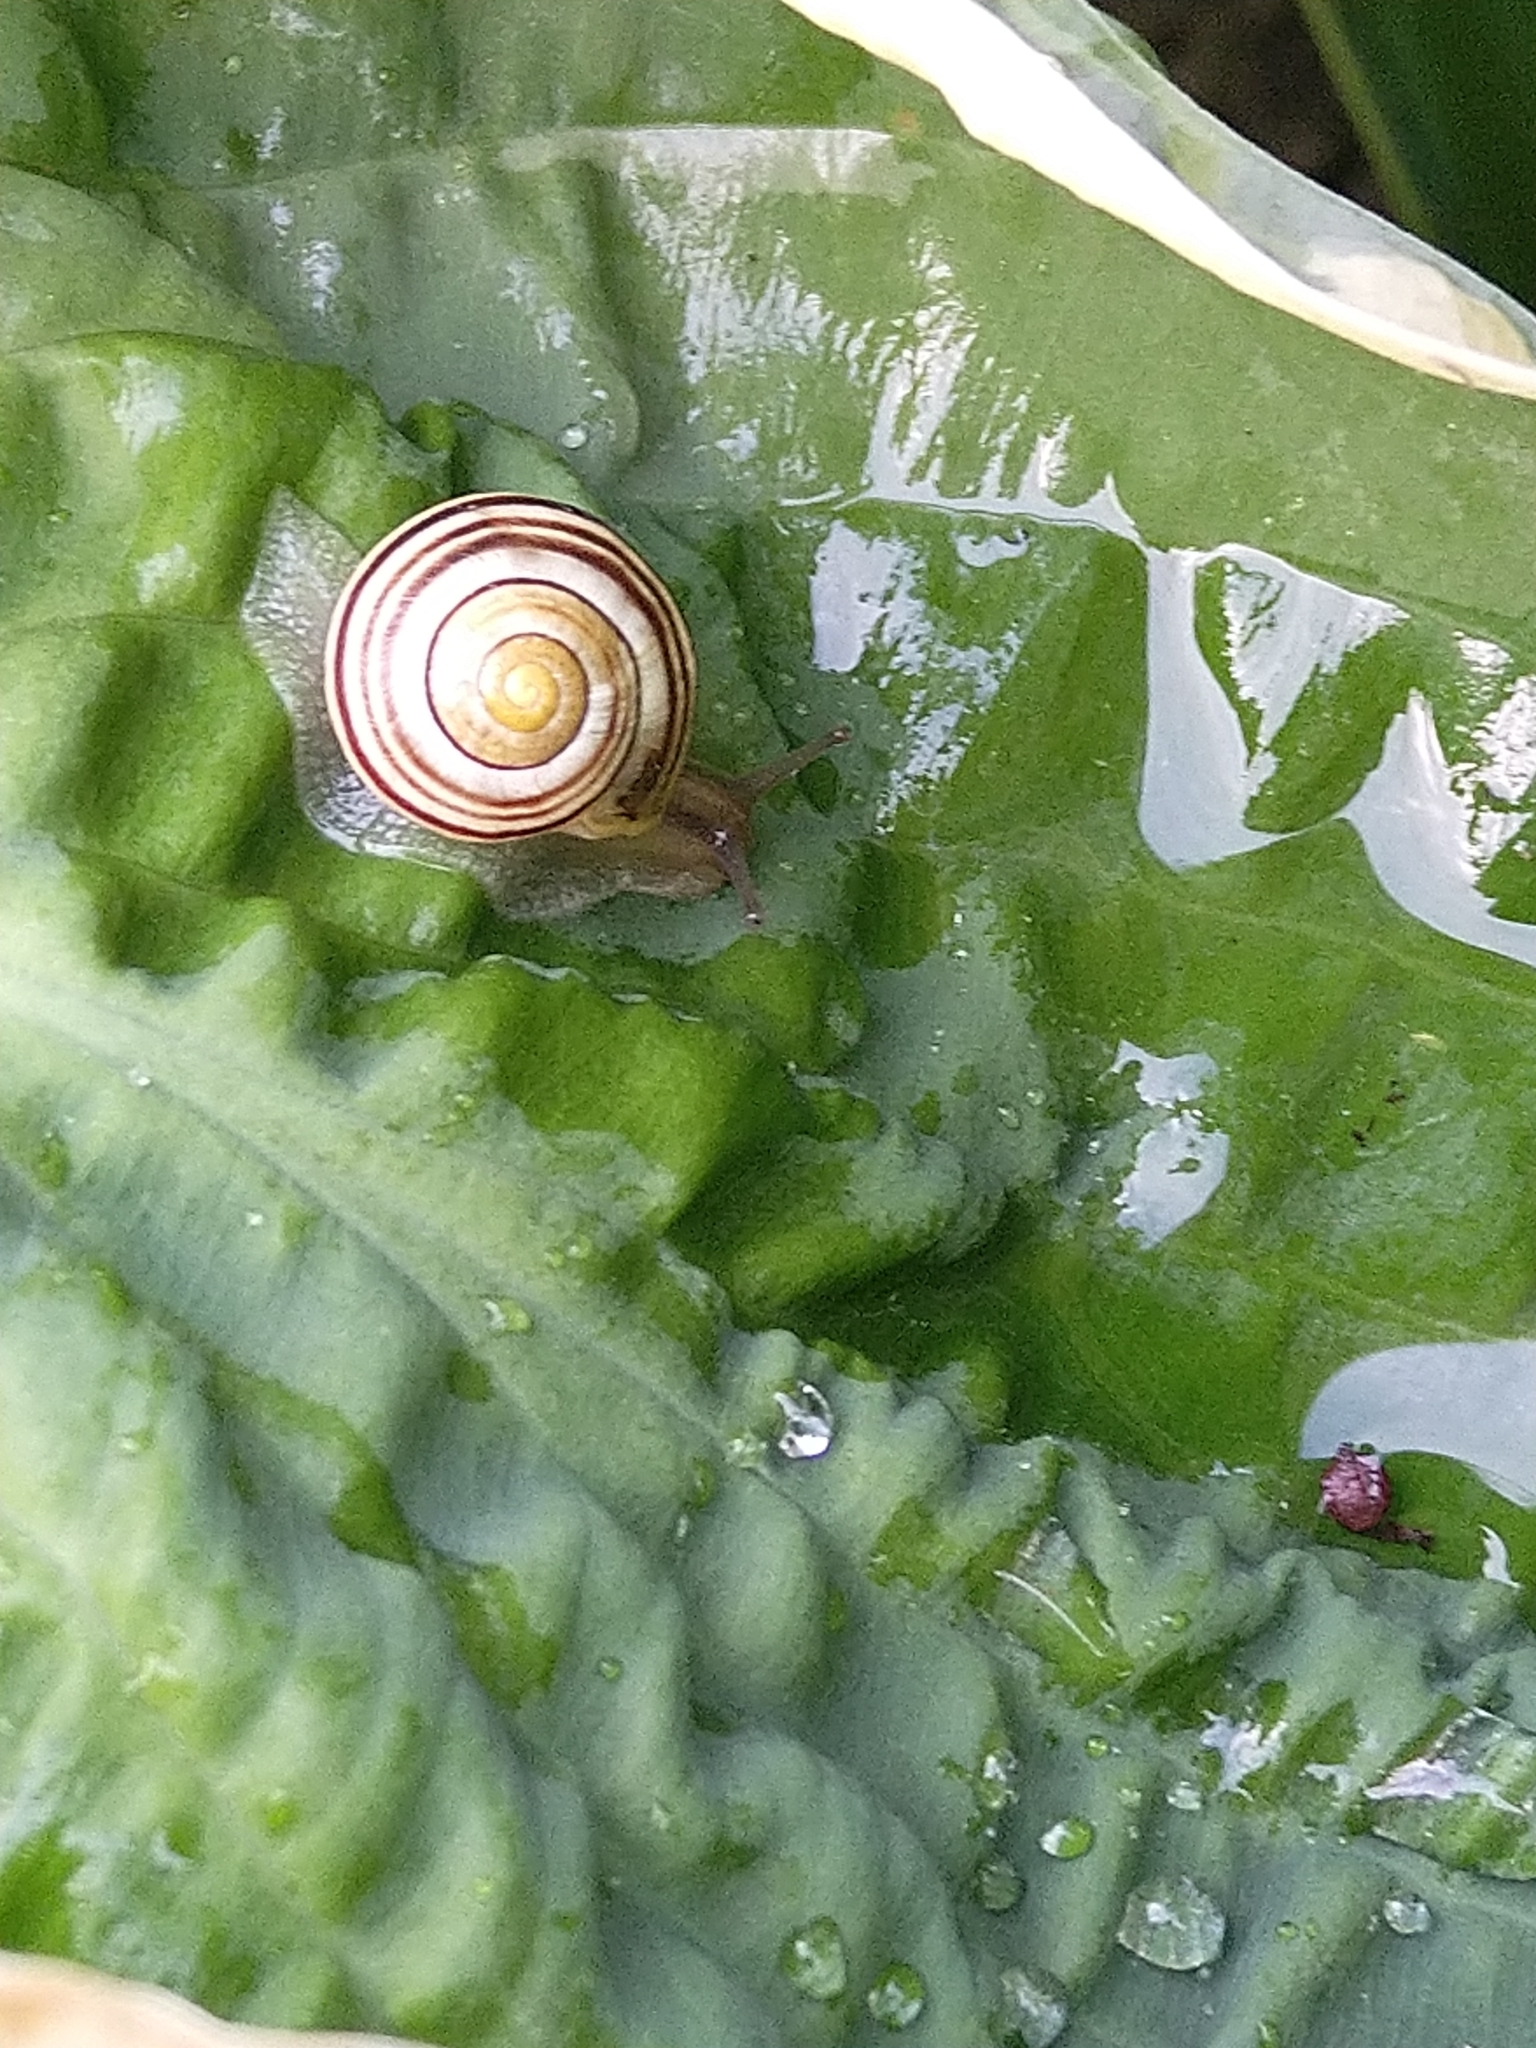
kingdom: Animalia
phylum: Mollusca
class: Gastropoda
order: Stylommatophora
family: Helicidae
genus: Cepaea
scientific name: Cepaea
